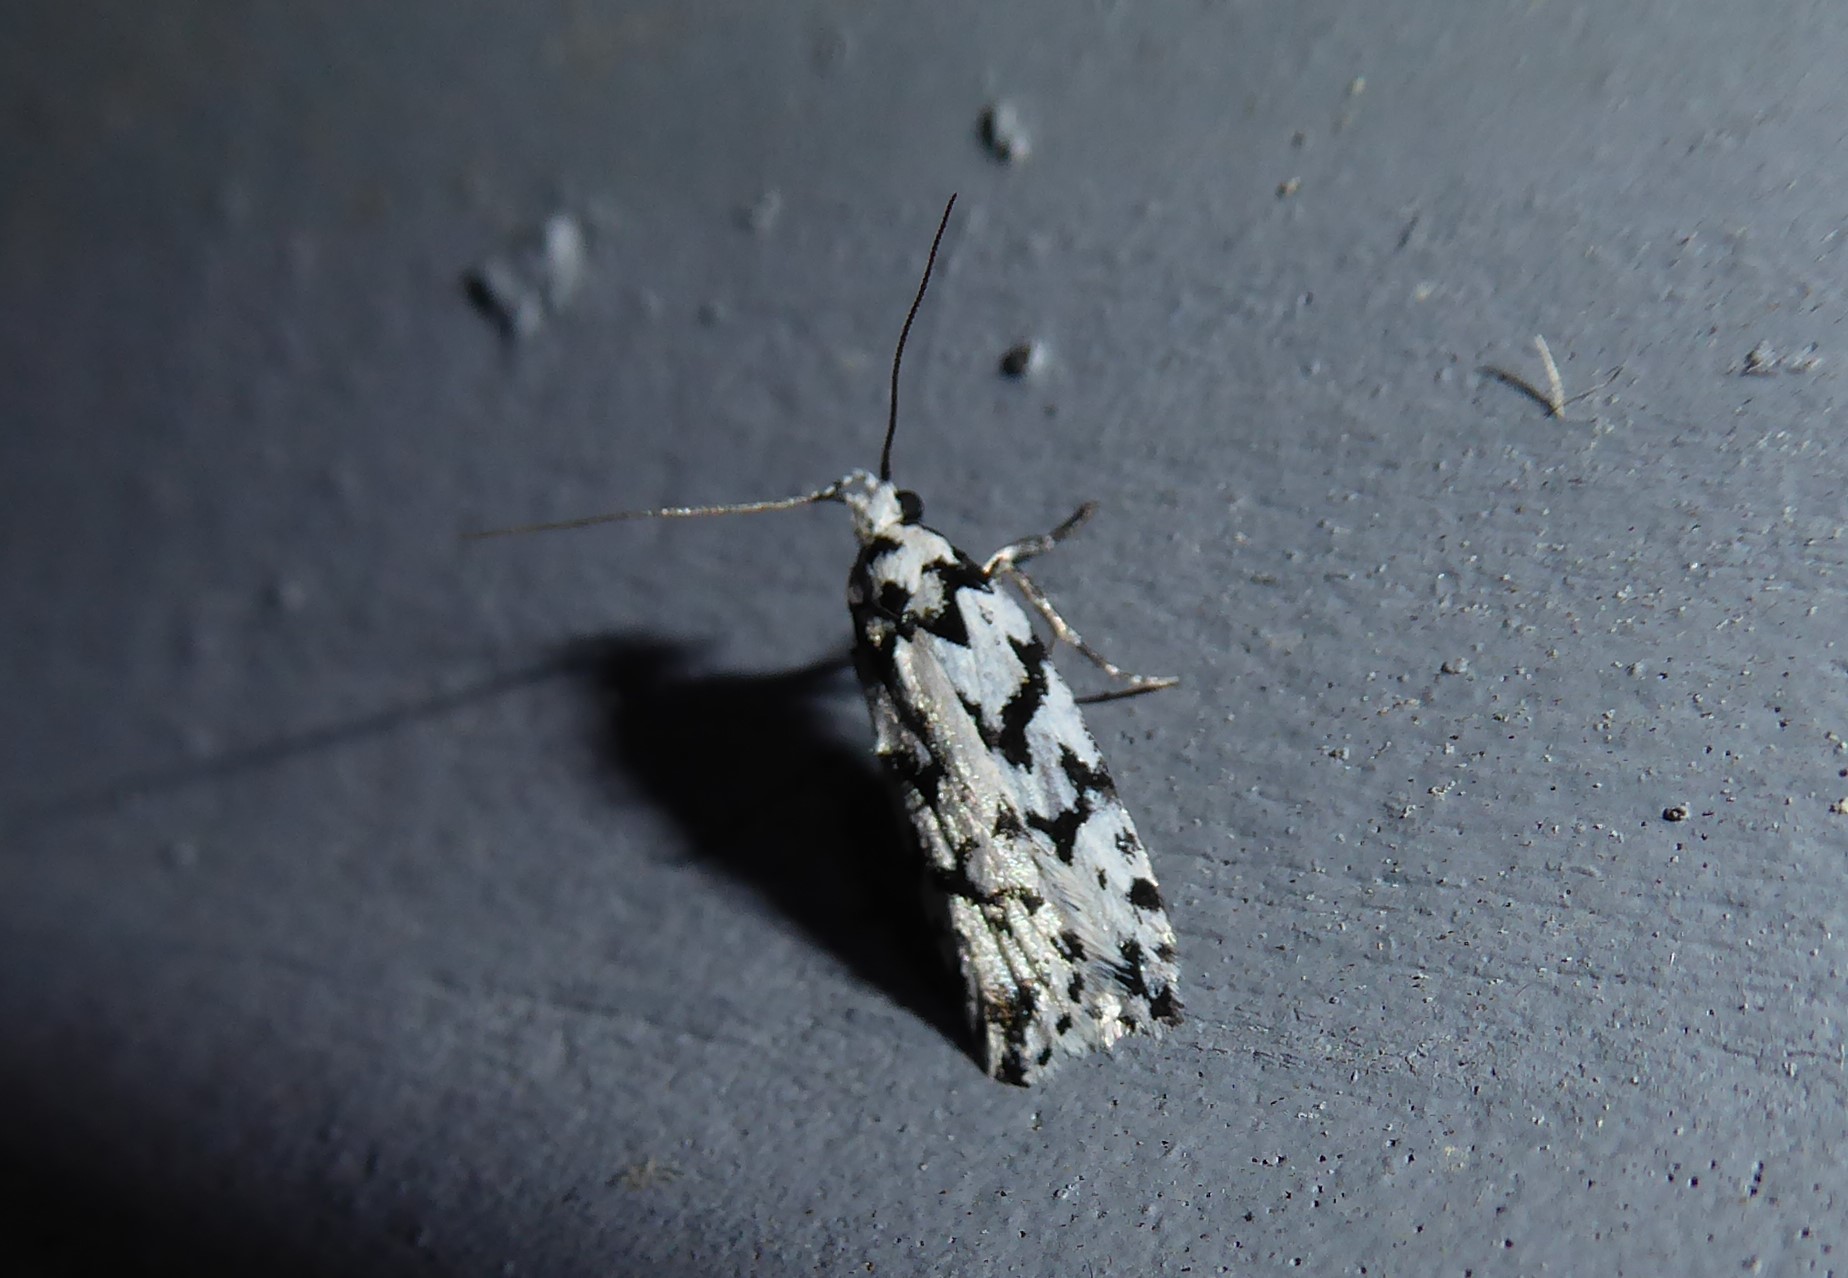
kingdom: Animalia
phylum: Arthropoda
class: Insecta
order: Lepidoptera
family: Oecophoridae
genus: Izatha
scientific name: Izatha katadiktya
